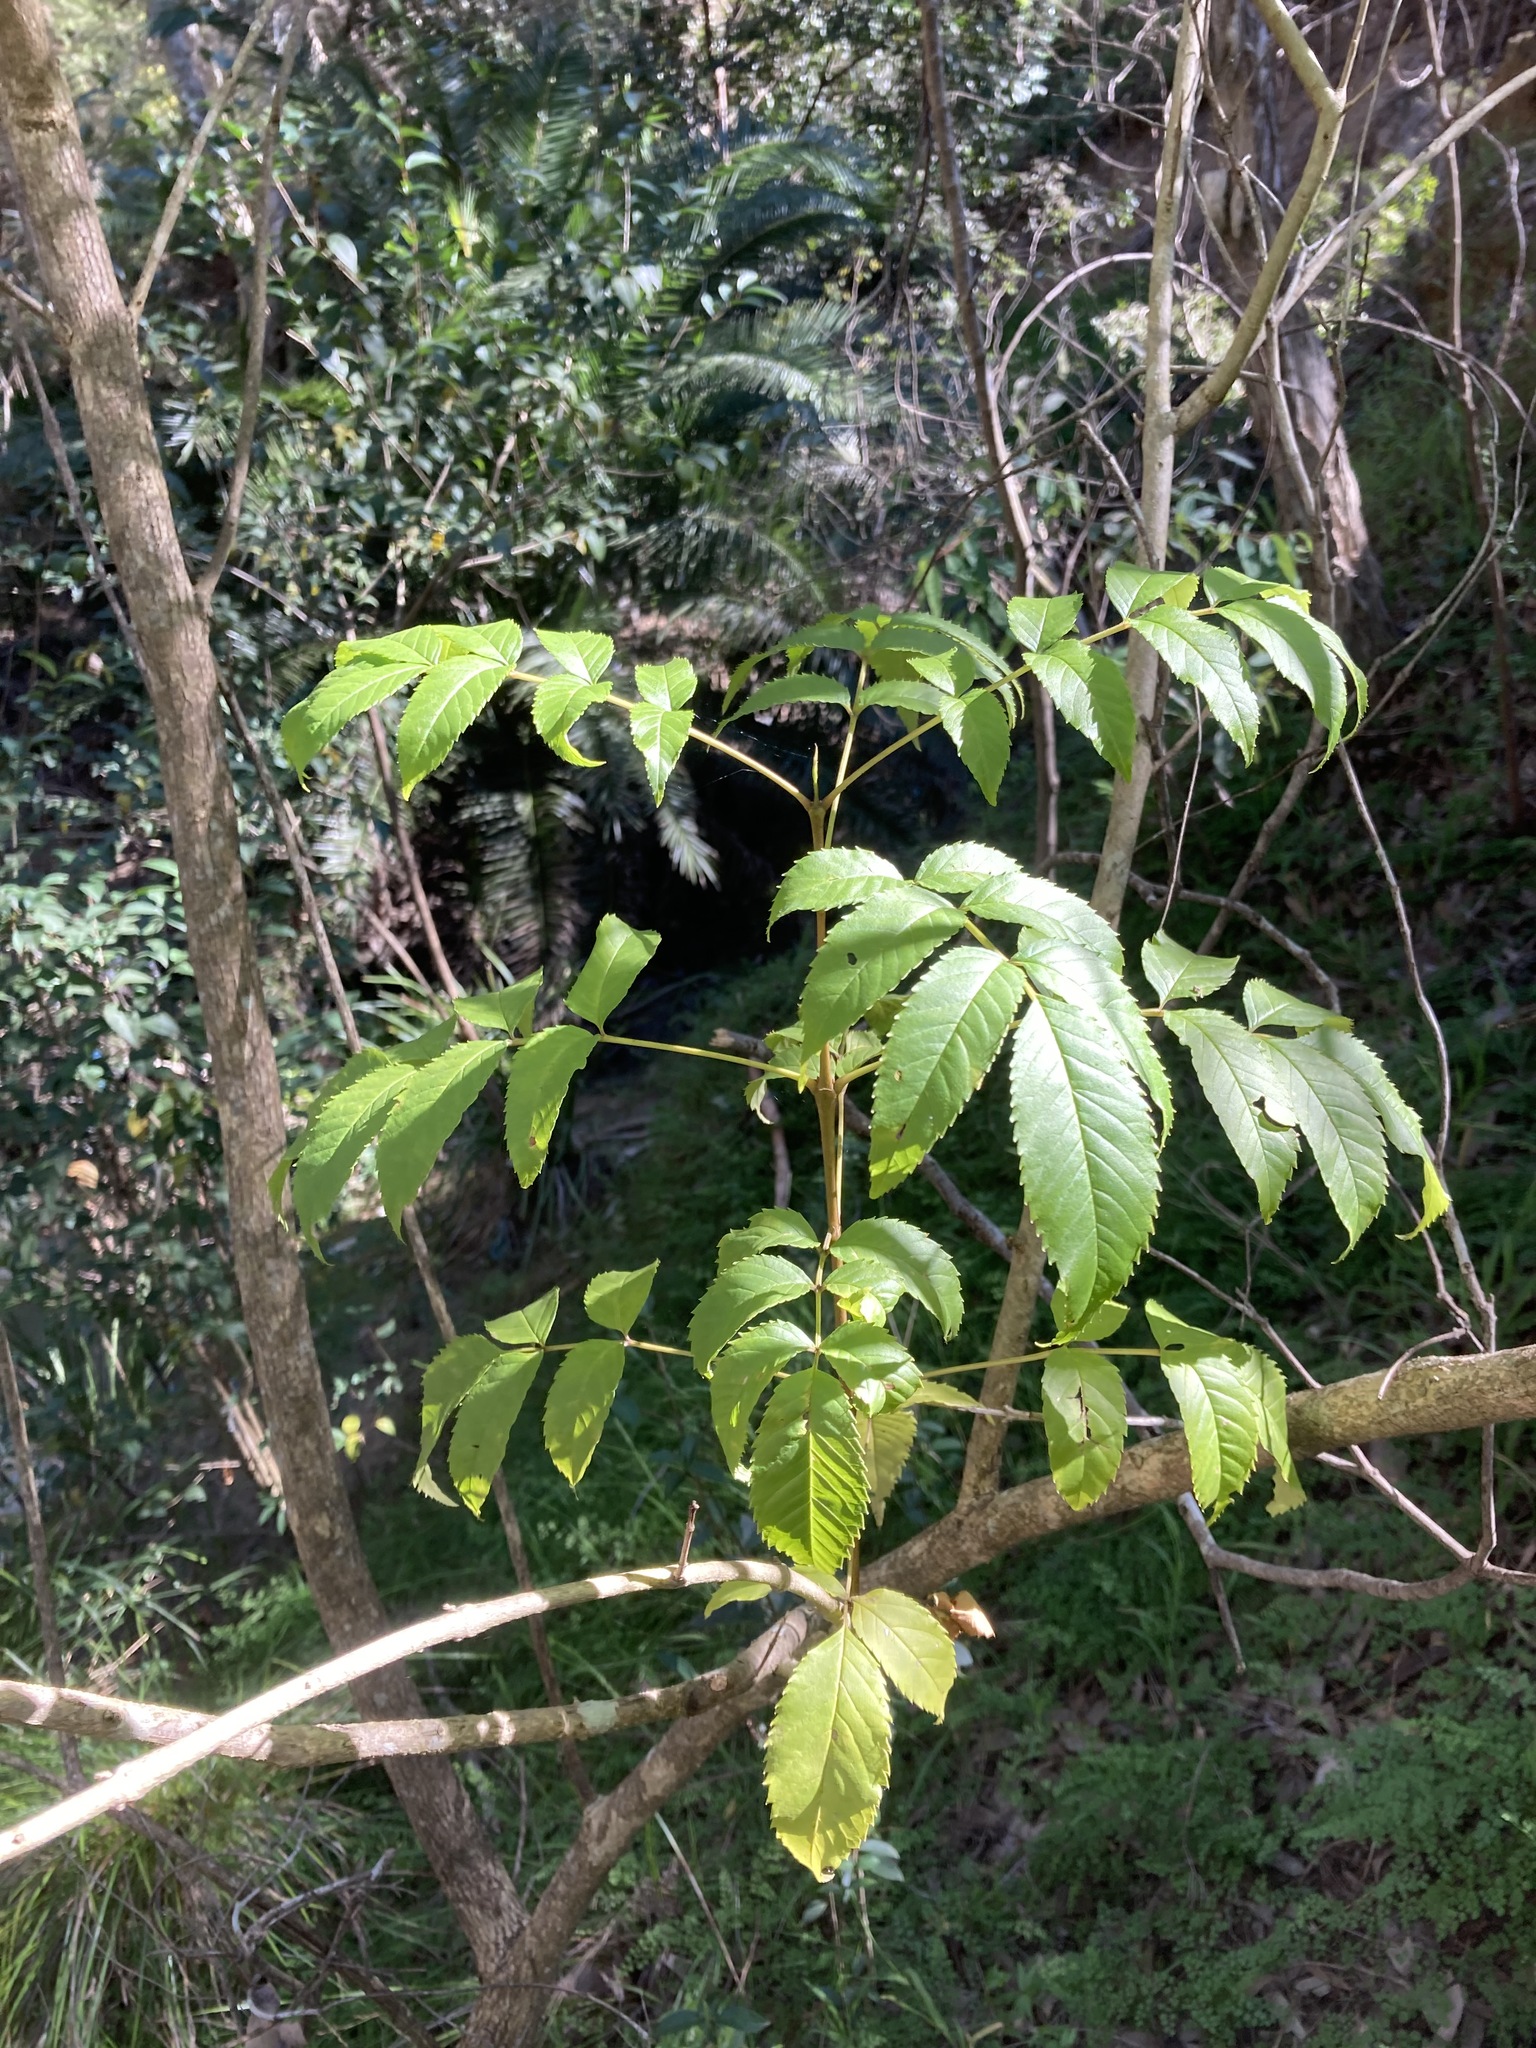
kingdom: Plantae
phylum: Tracheophyta
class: Magnoliopsida
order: Lamiales
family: Bignoniaceae
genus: Tecoma
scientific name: Tecoma stans
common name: Yellow trumpetbush
